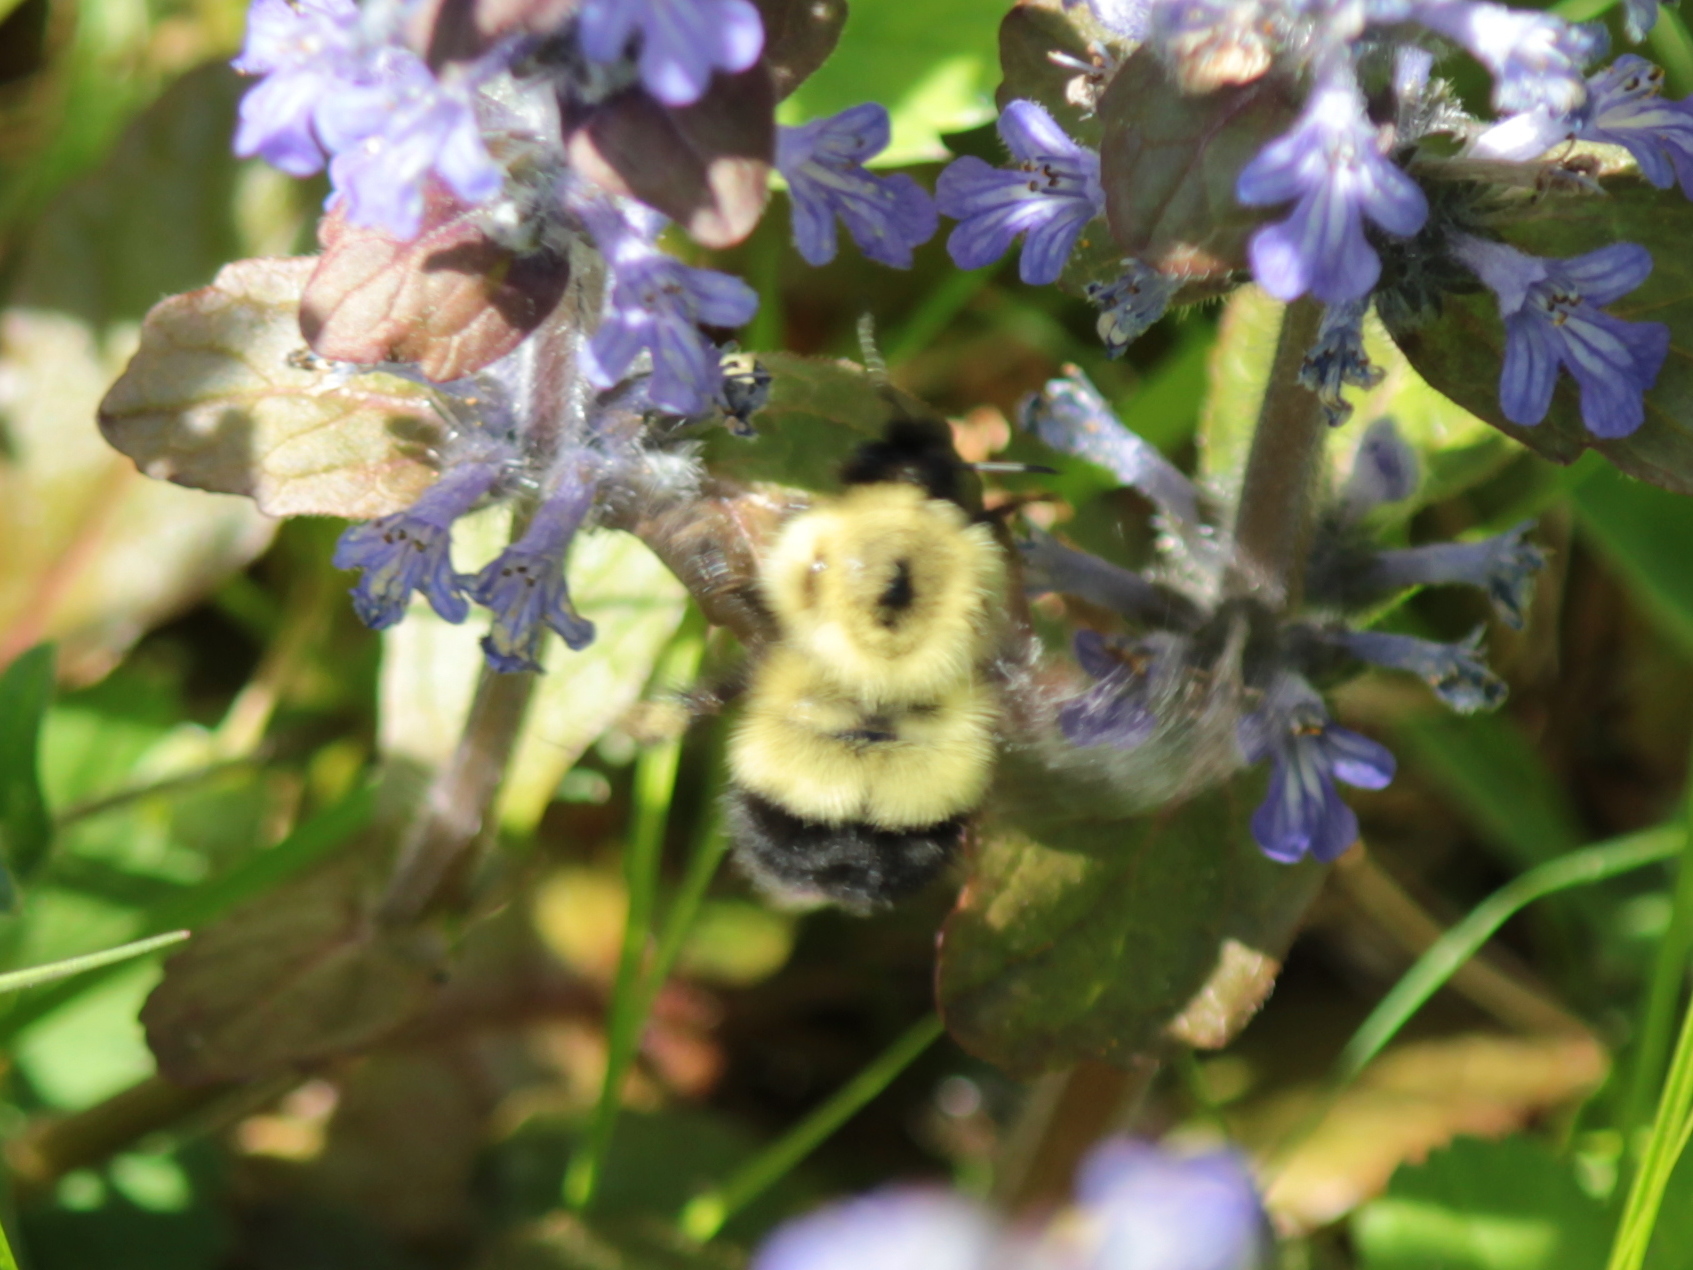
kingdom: Animalia
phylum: Arthropoda
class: Insecta
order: Hymenoptera
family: Apidae
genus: Pyrobombus
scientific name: Pyrobombus
